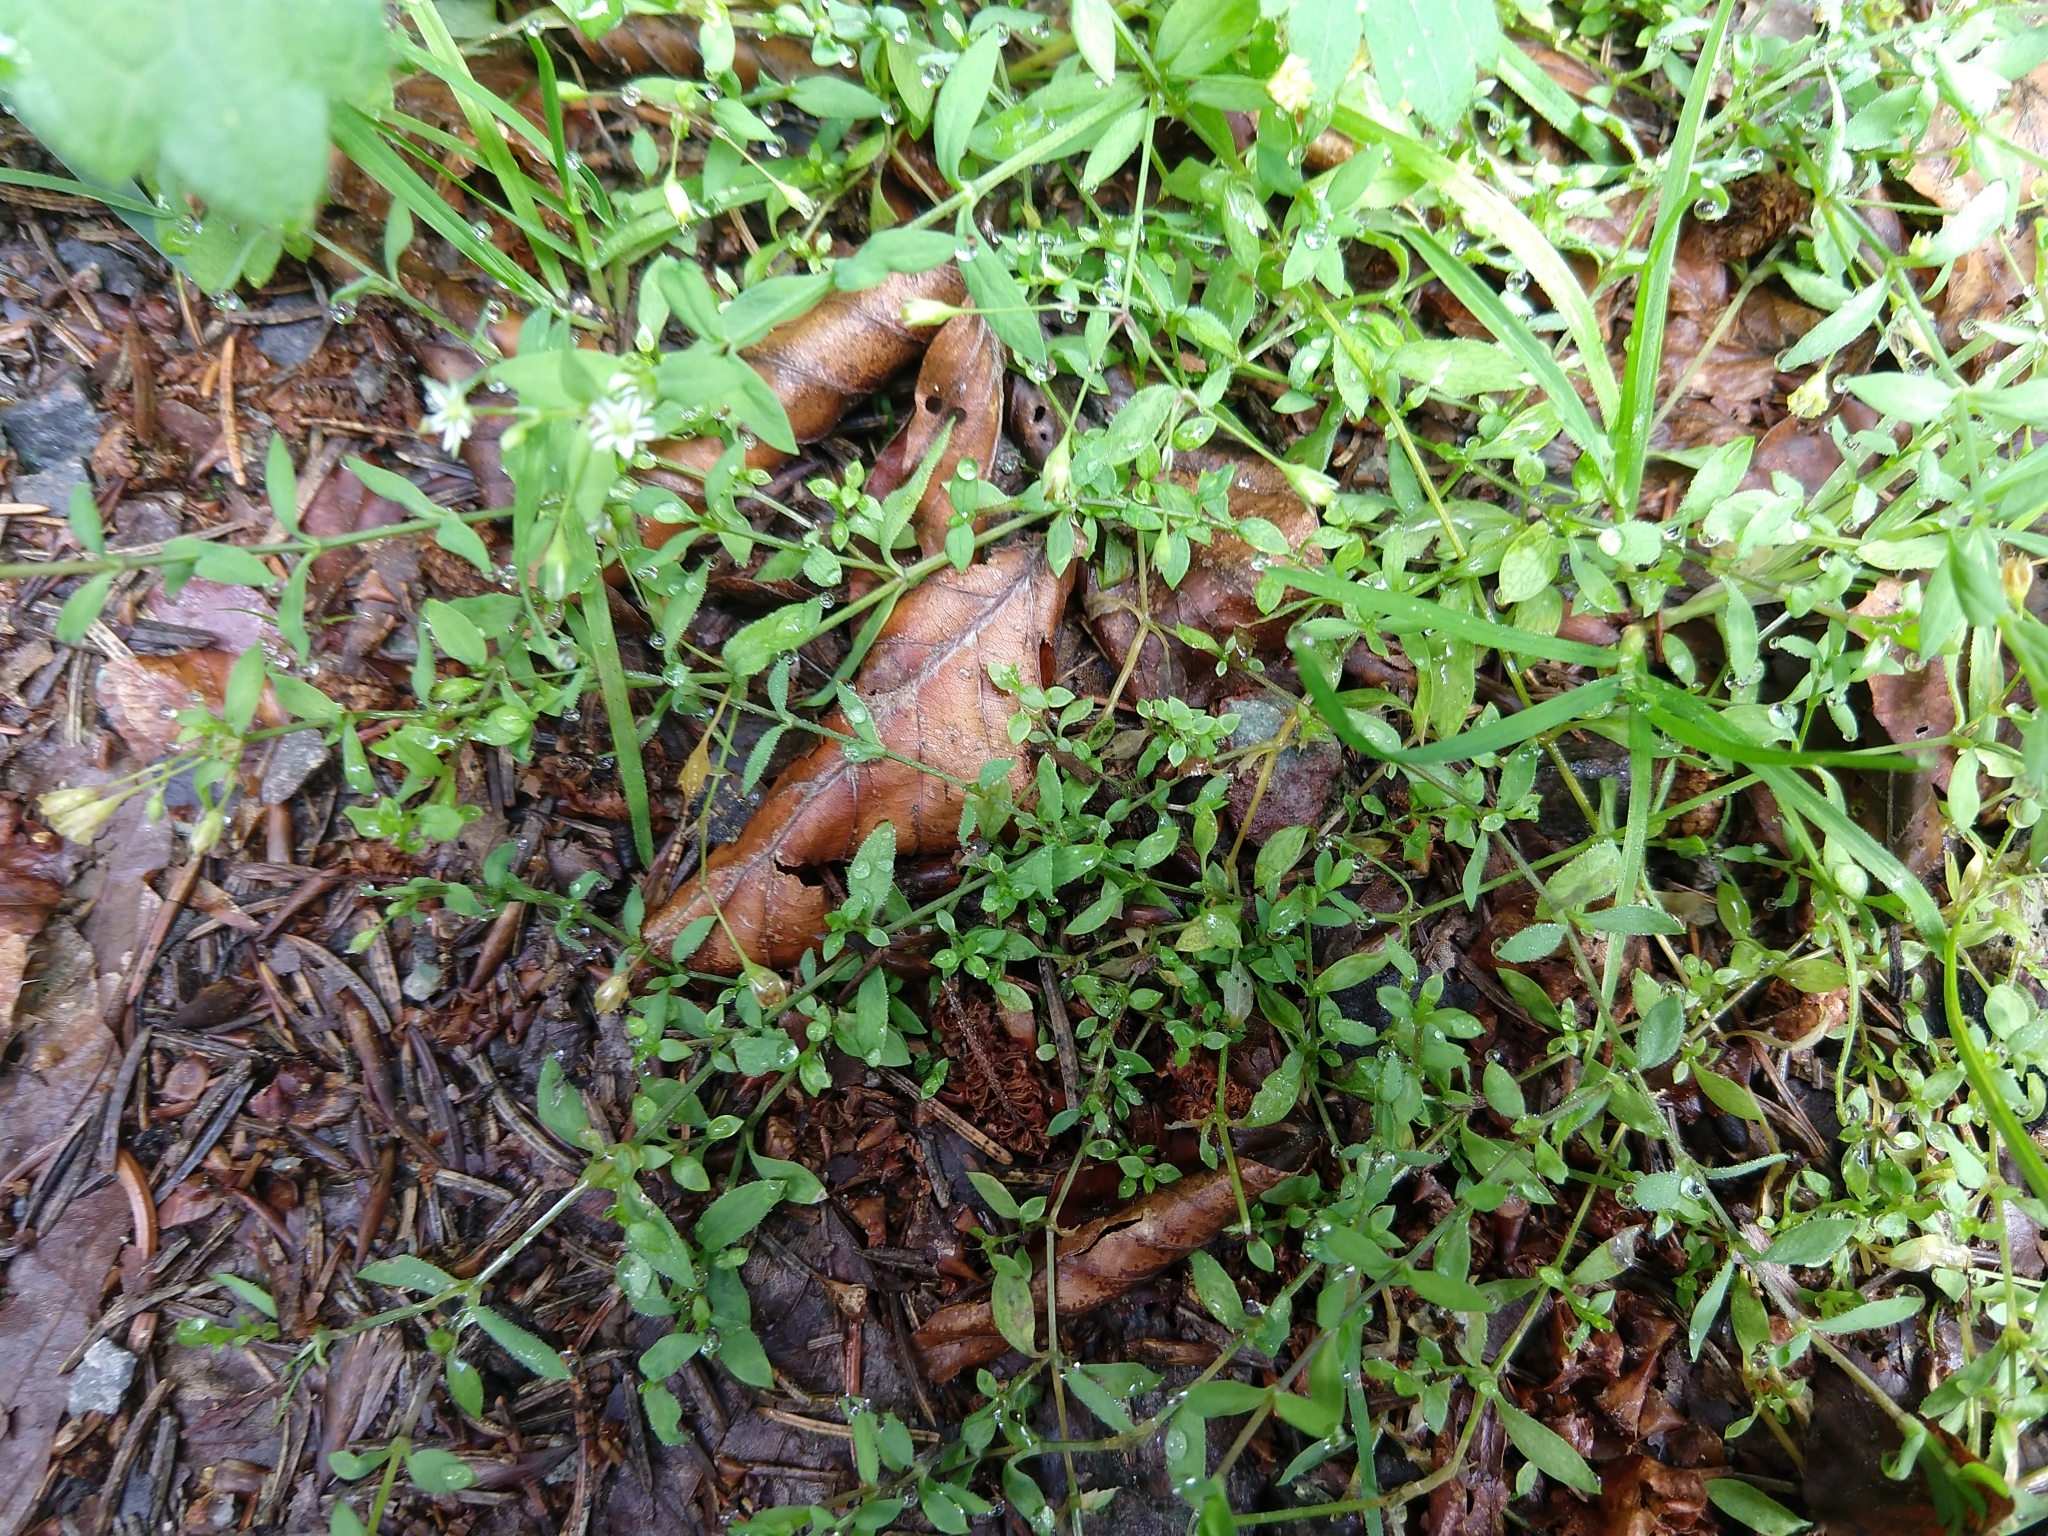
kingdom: Plantae
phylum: Tracheophyta
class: Magnoliopsida
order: Caryophyllales
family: Caryophyllaceae
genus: Stellaria
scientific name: Stellaria alsine
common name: Bog stitchwort
